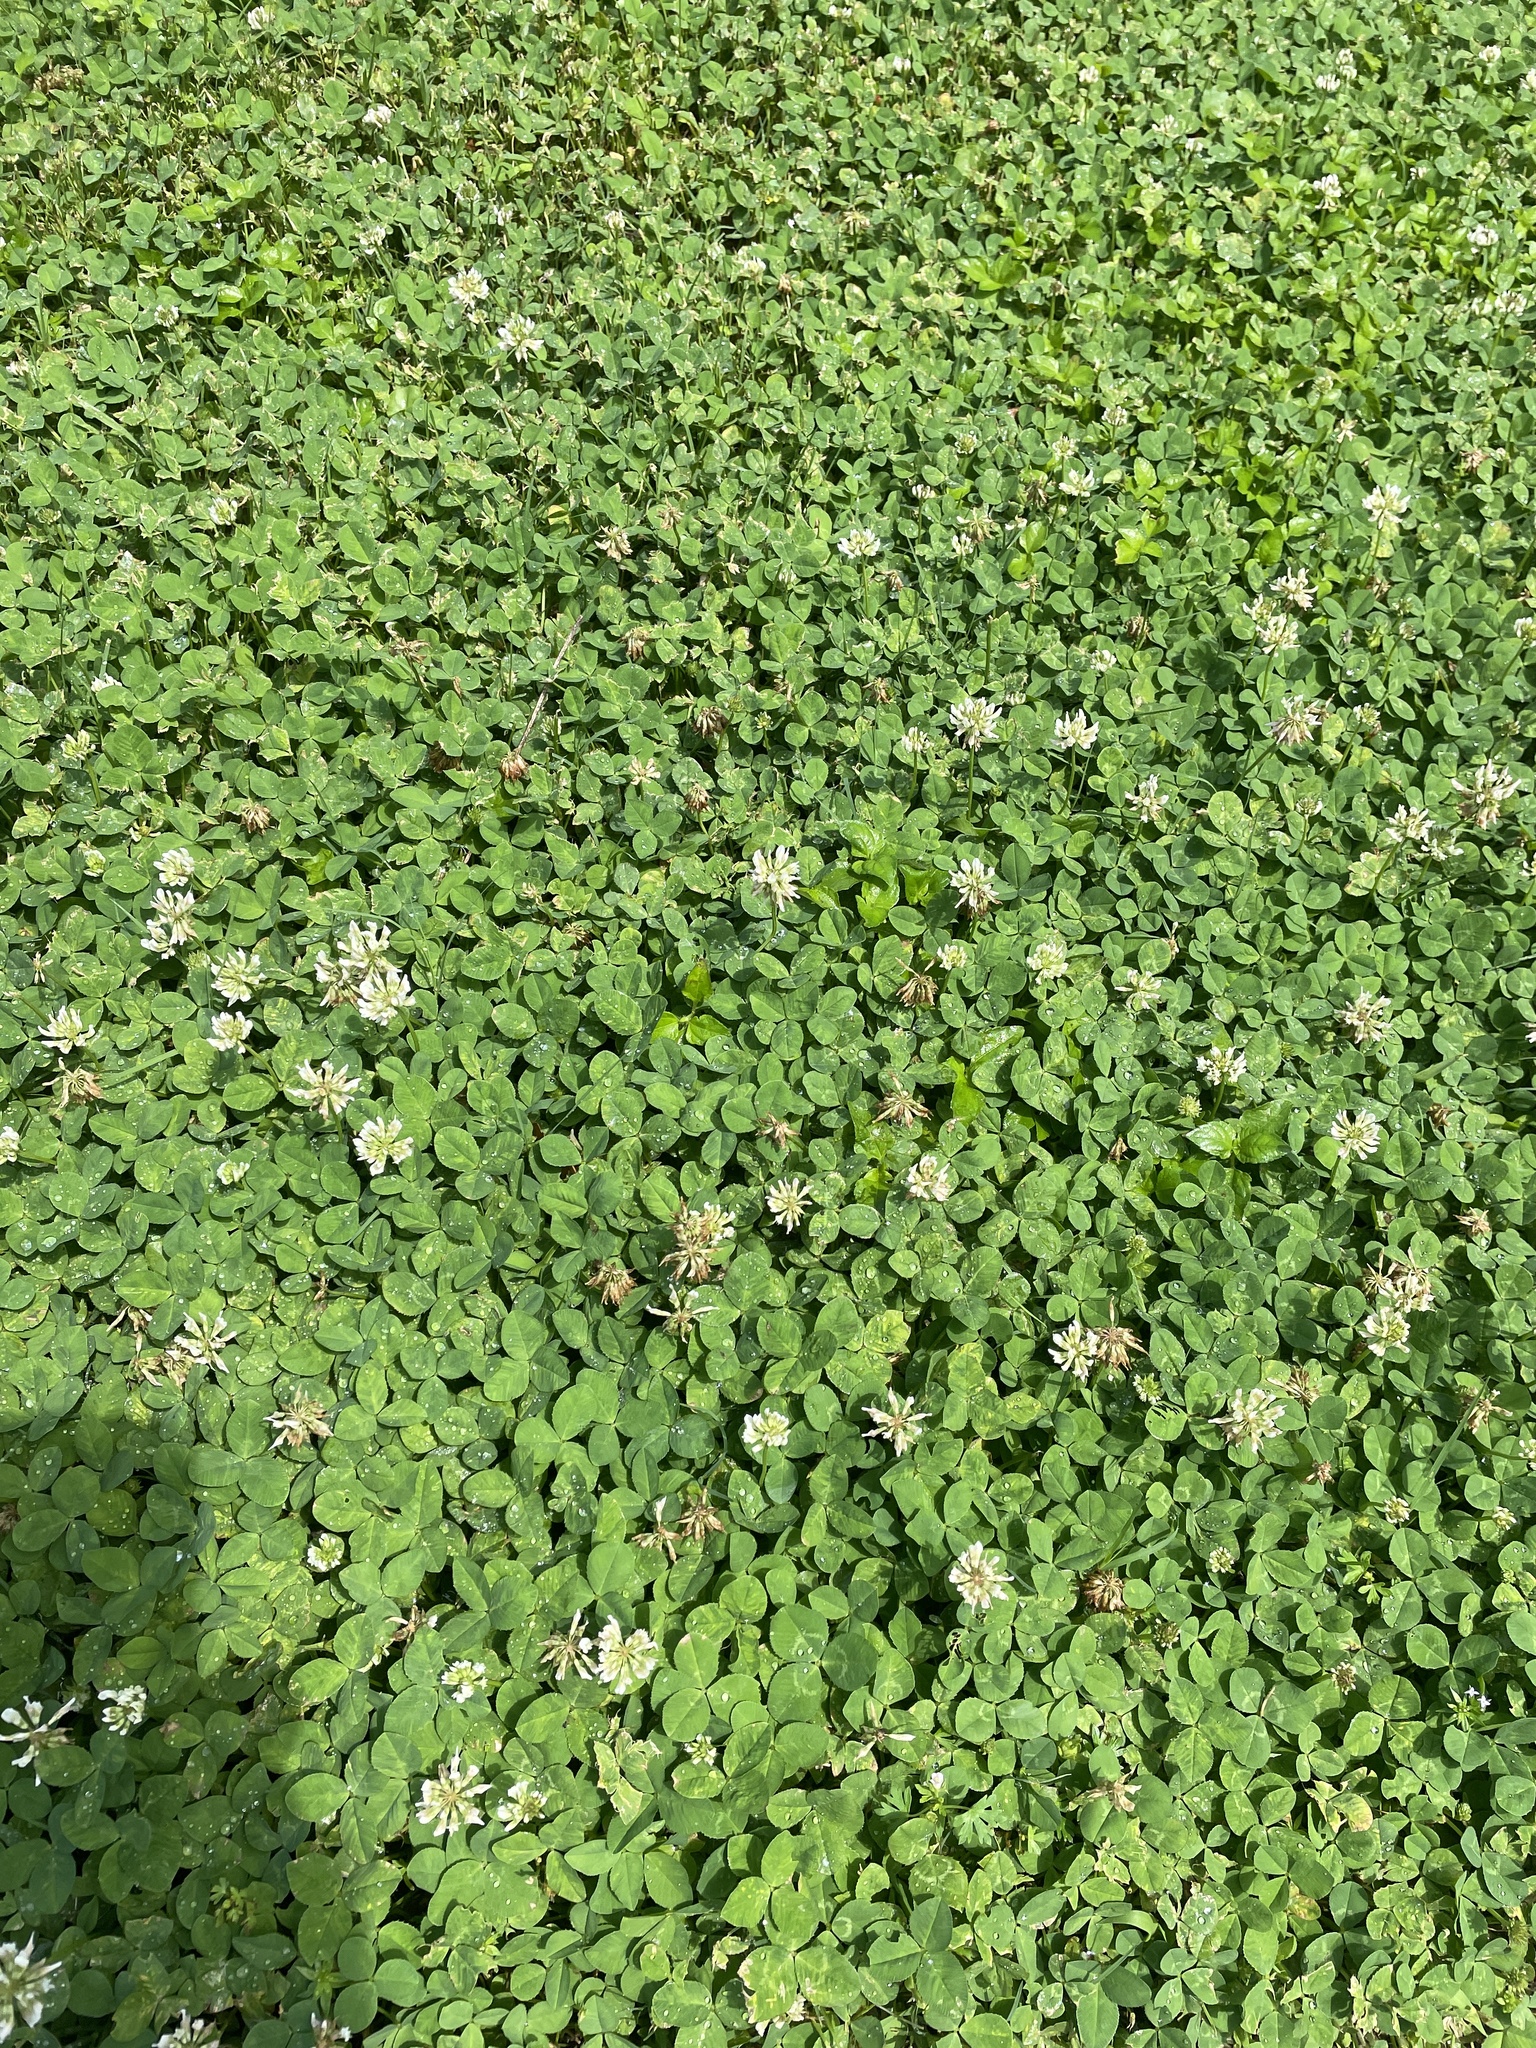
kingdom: Plantae
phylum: Tracheophyta
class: Magnoliopsida
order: Fabales
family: Fabaceae
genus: Trifolium
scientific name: Trifolium repens
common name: White clover
